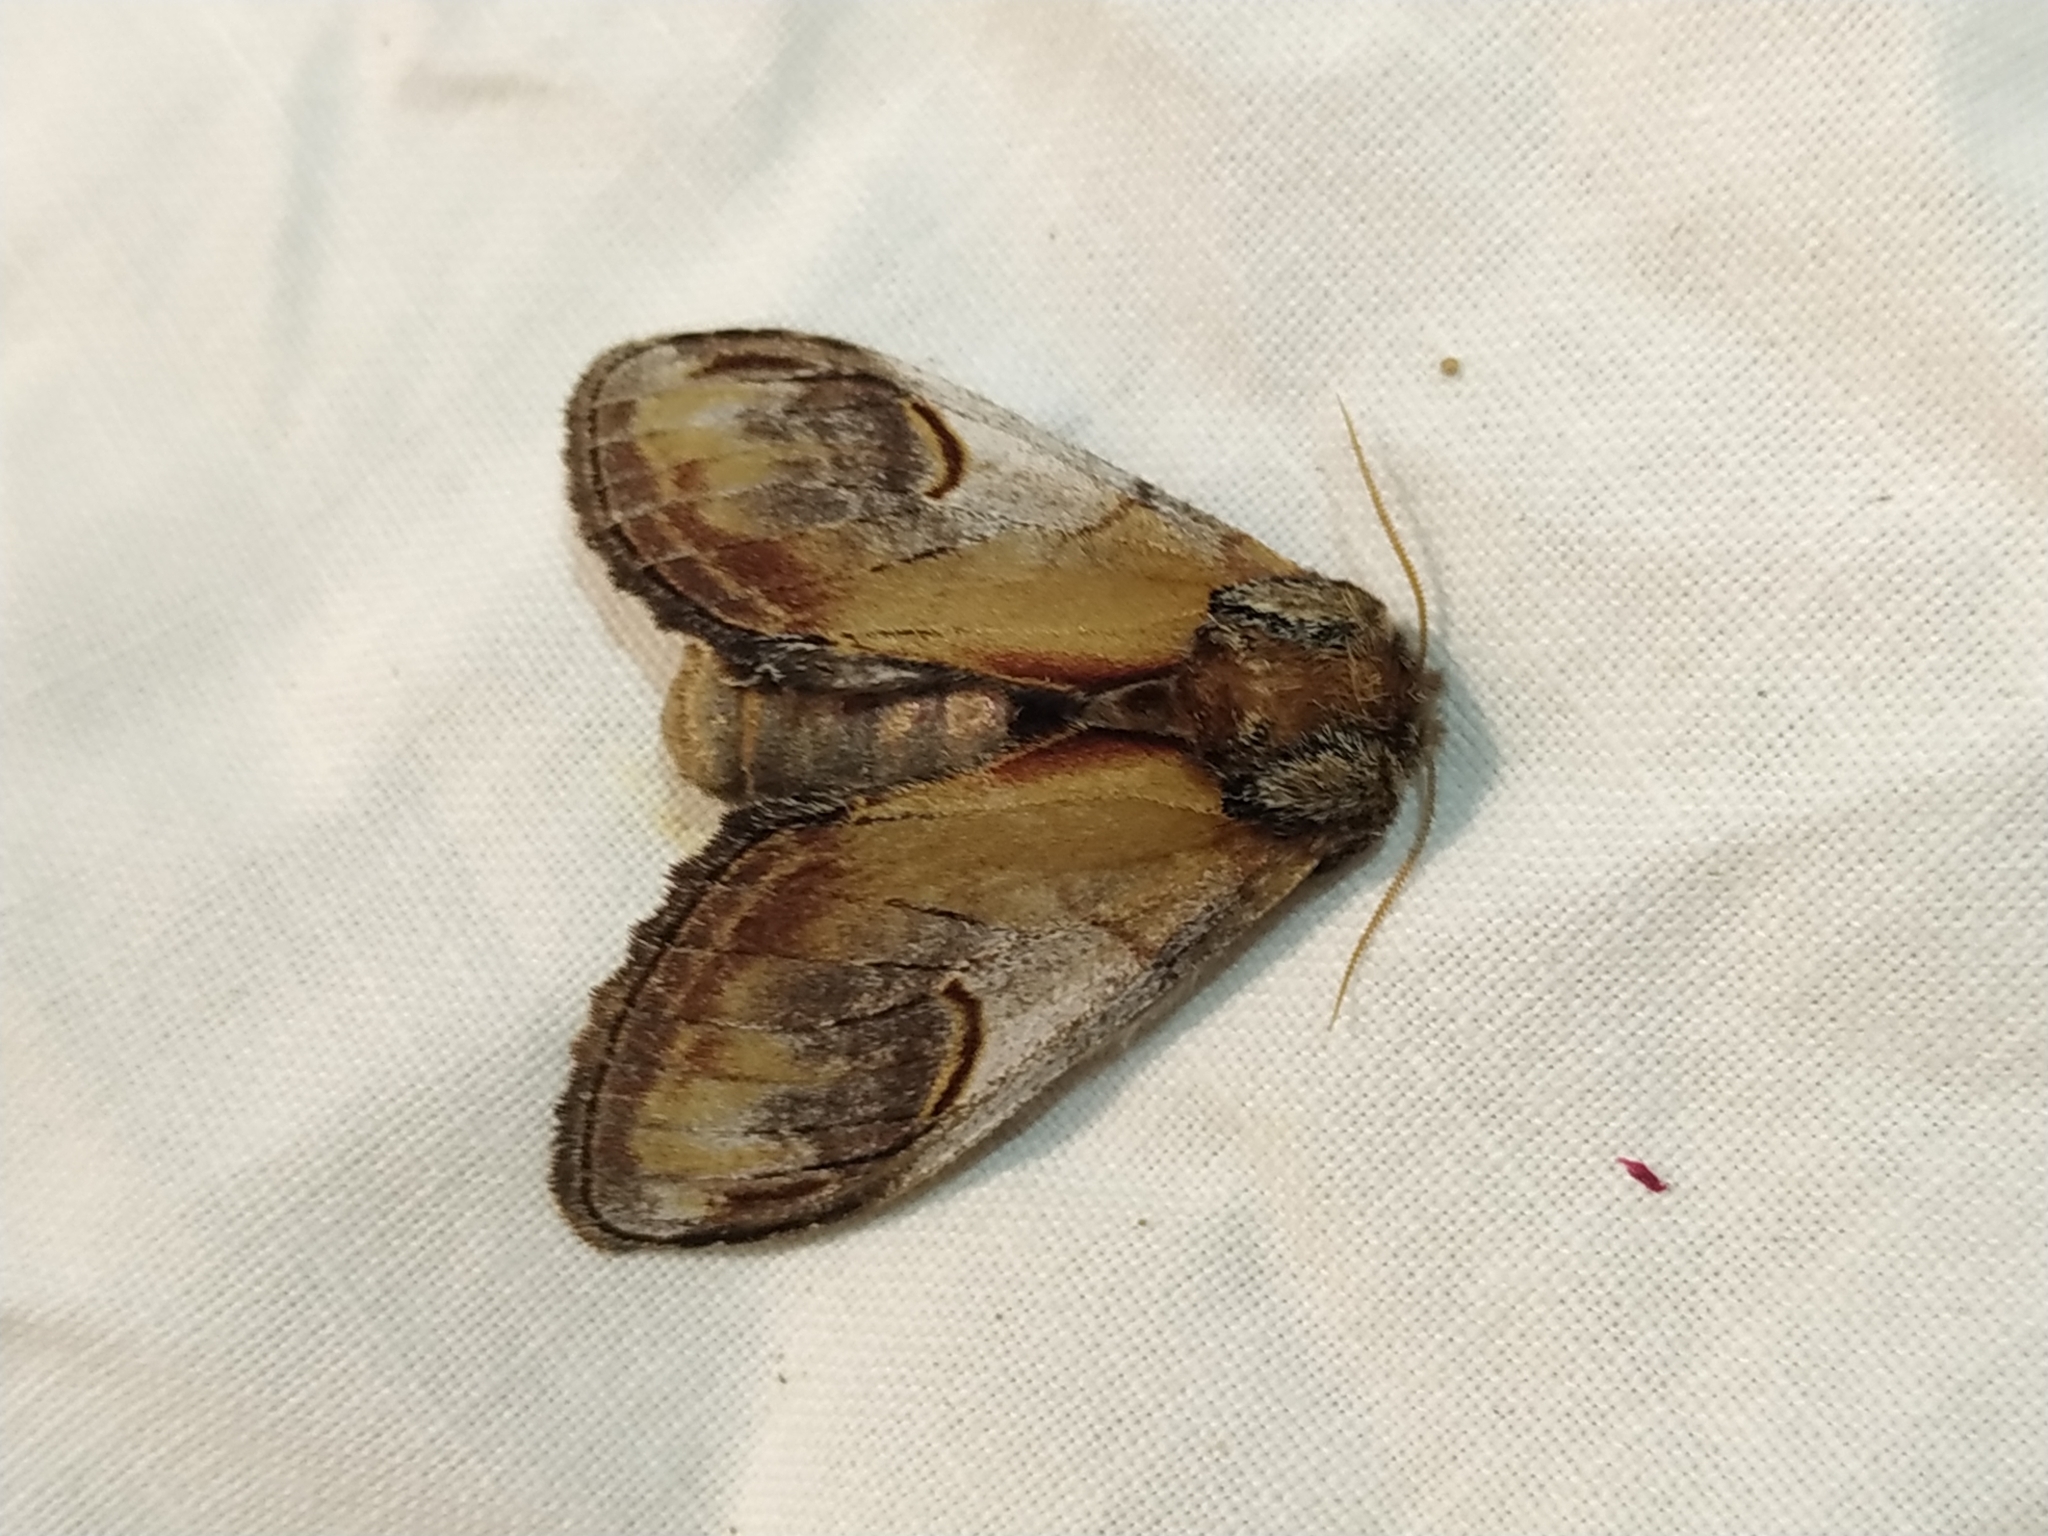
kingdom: Animalia
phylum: Arthropoda
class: Insecta
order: Lepidoptera
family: Notodontidae
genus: Notodonta
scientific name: Notodonta ziczac
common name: Pebble prominent
